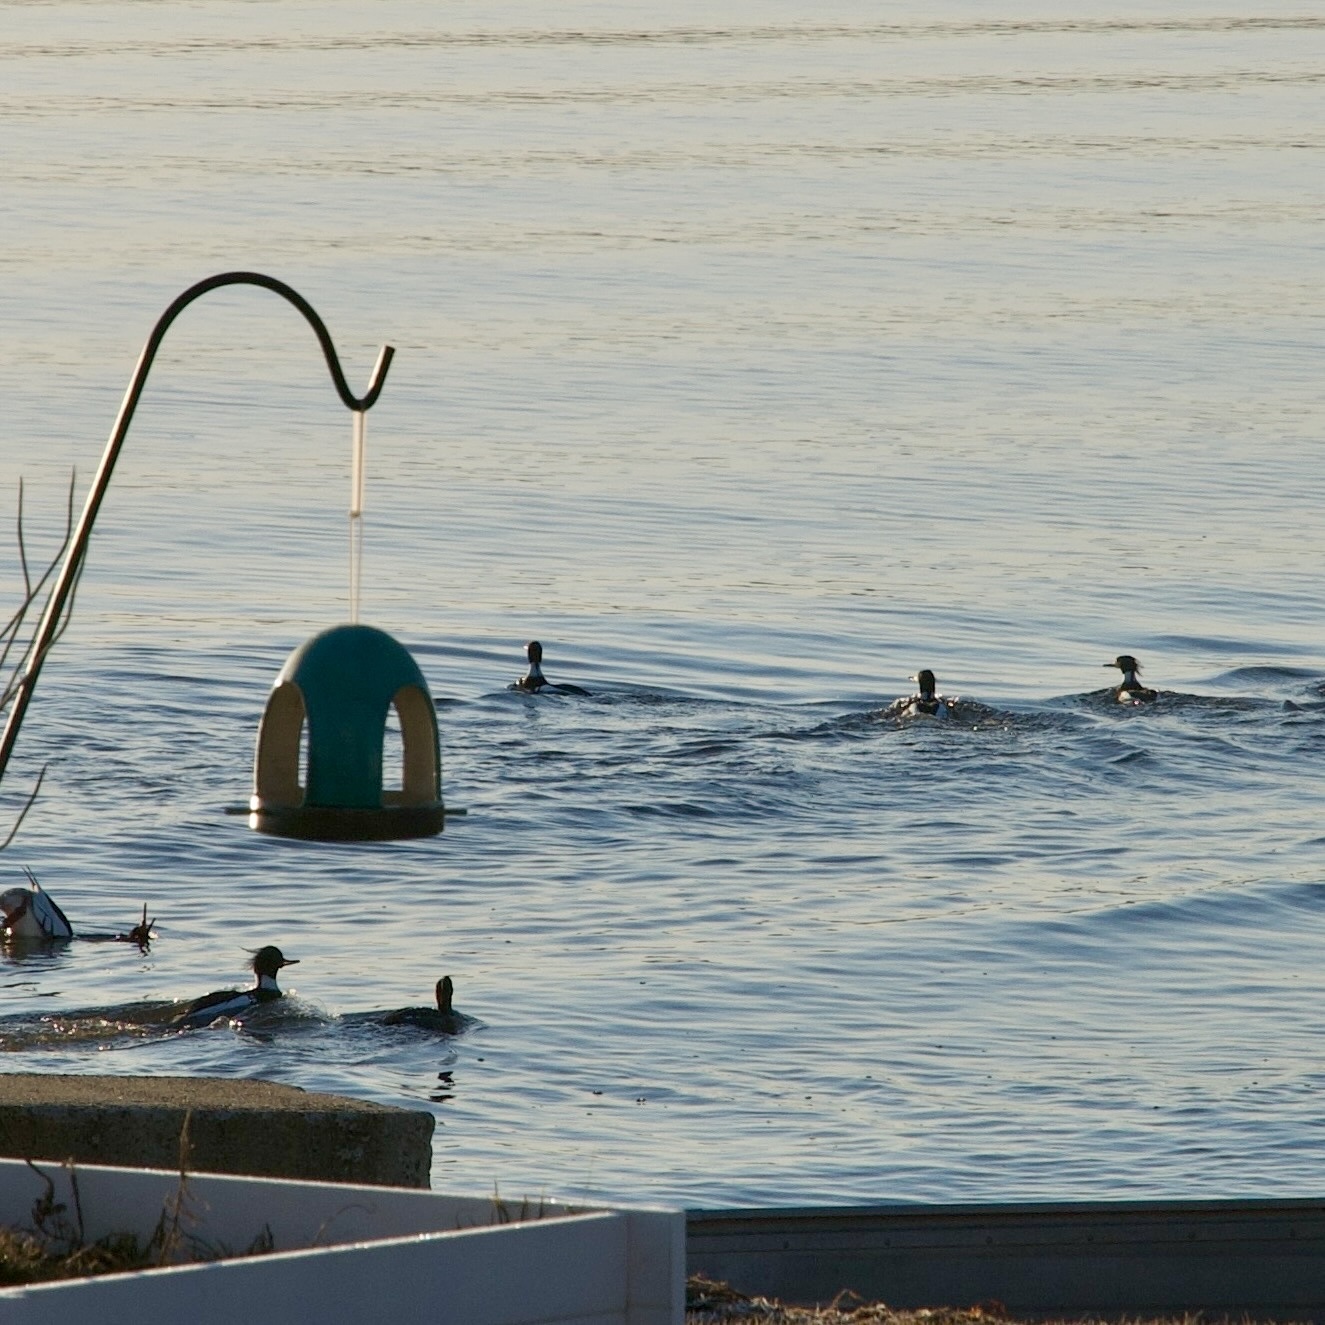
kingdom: Animalia
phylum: Chordata
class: Aves
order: Anseriformes
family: Anatidae
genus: Mergus
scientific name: Mergus serrator
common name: Red-breasted merganser
